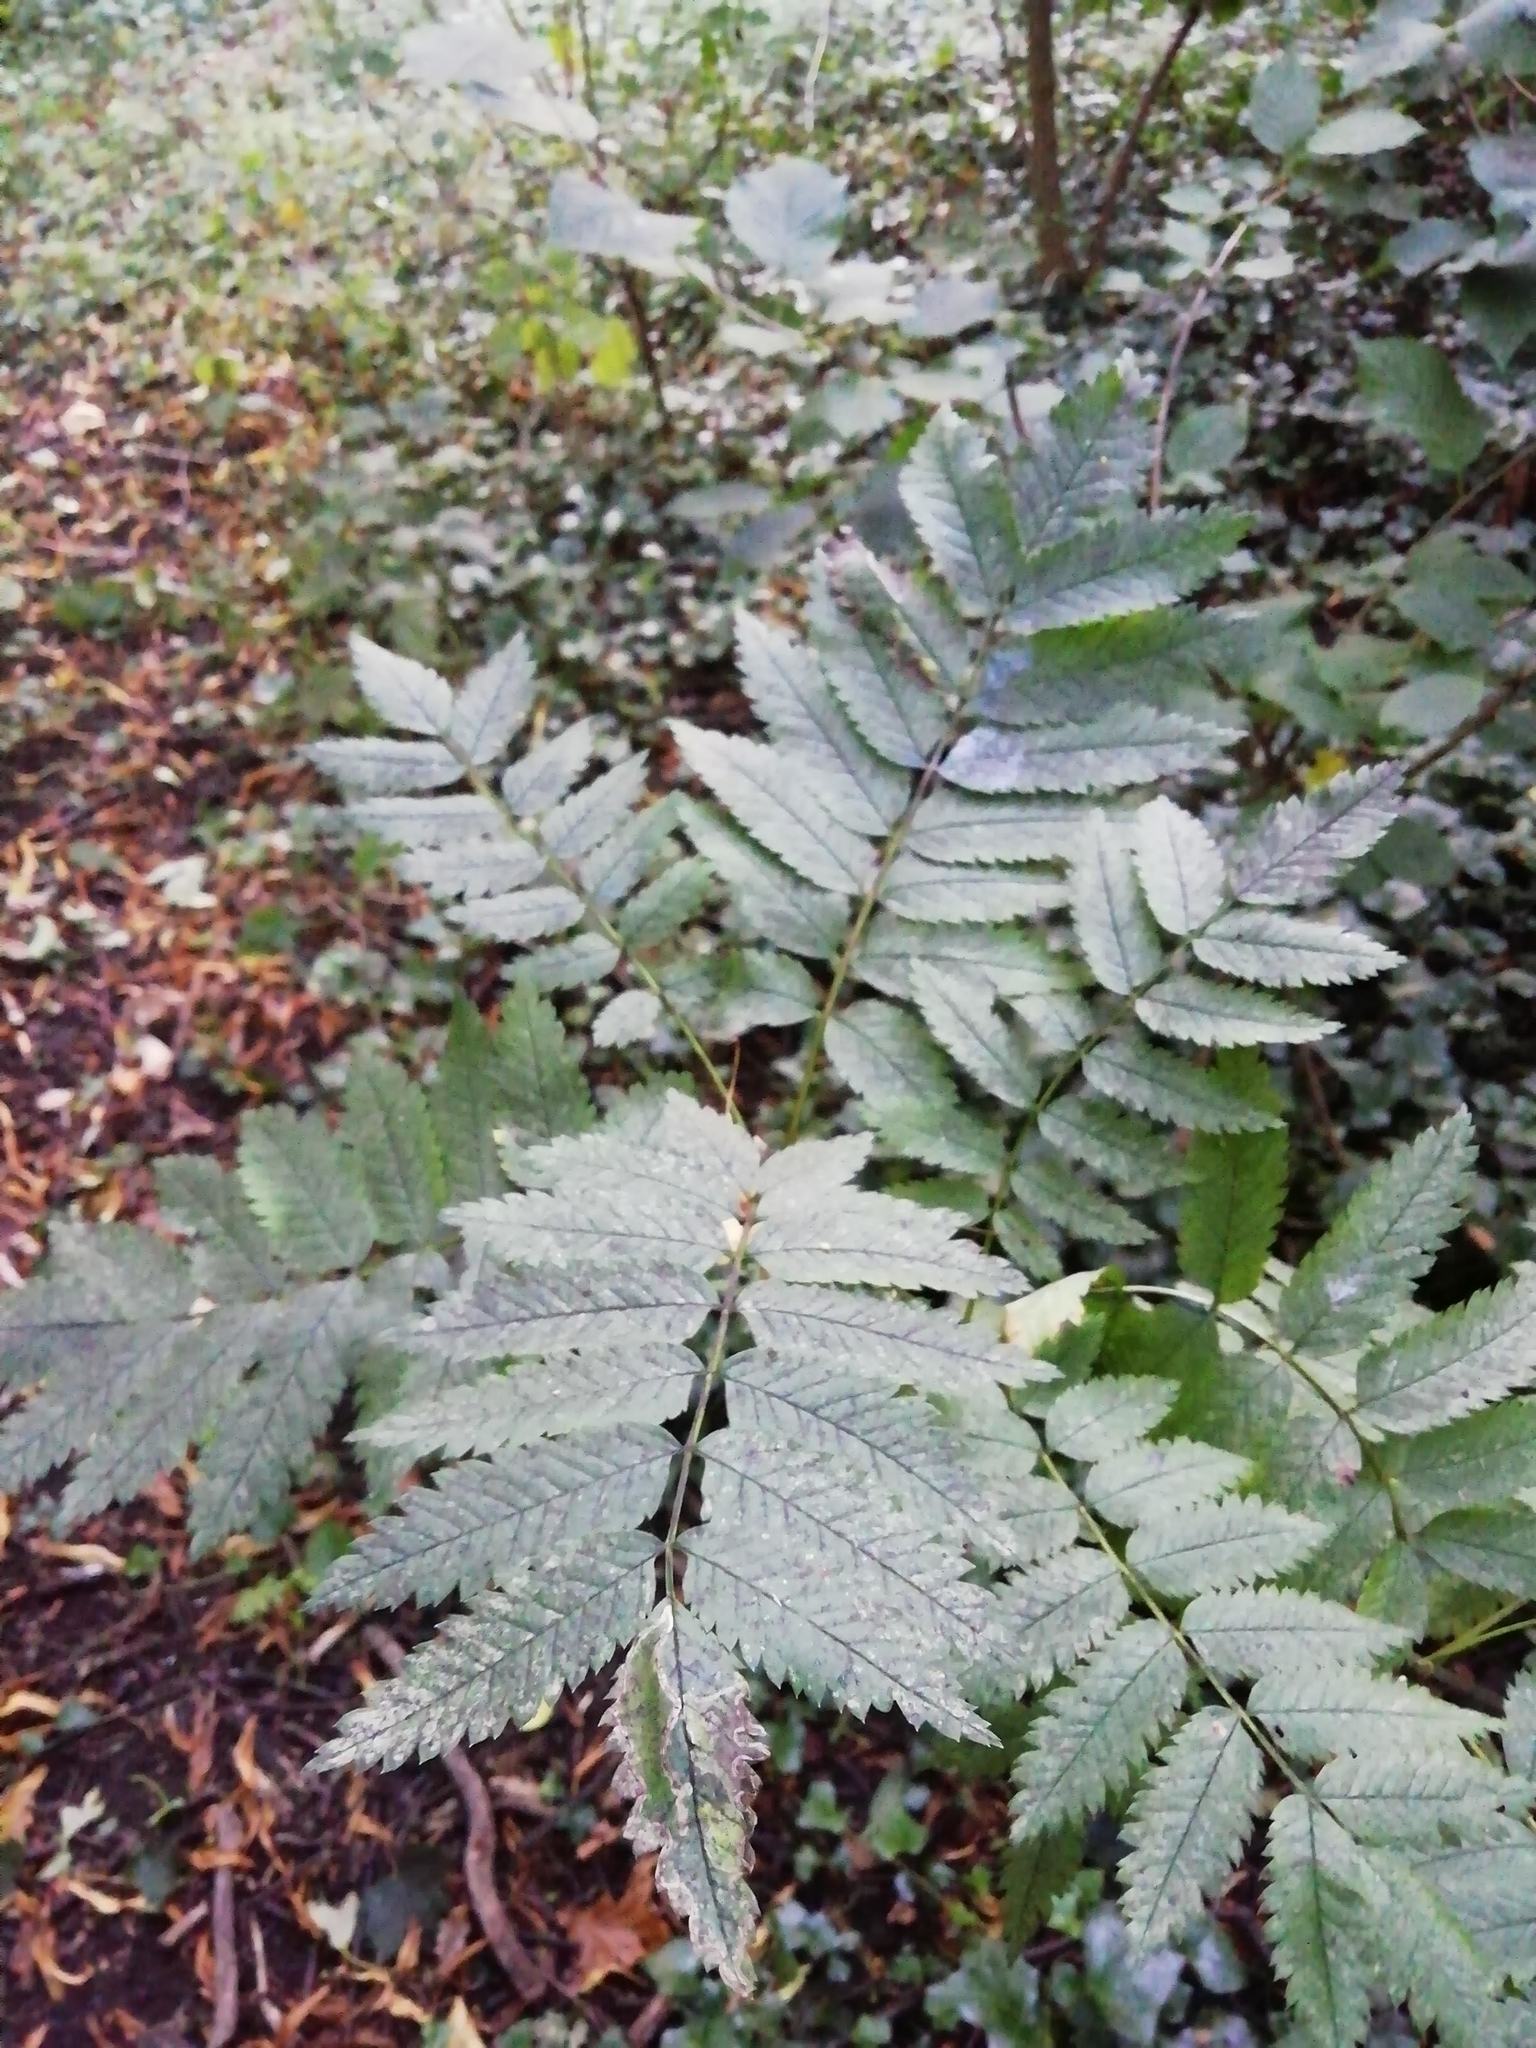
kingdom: Plantae
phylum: Tracheophyta
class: Magnoliopsida
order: Rosales
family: Rosaceae
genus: Sorbus
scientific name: Sorbus aucuparia
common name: Rowan
